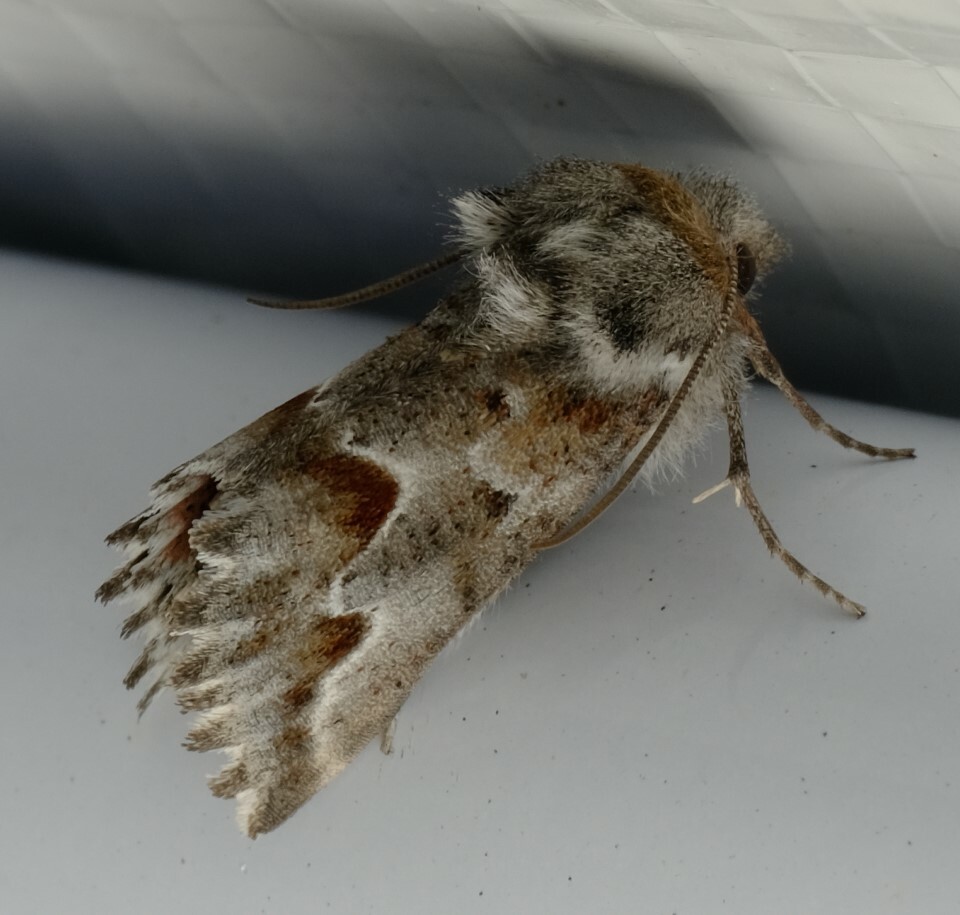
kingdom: Animalia
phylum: Arthropoda
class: Insecta
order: Lepidoptera
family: Geometridae
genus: Hypographa
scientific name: Hypographa epiodes
